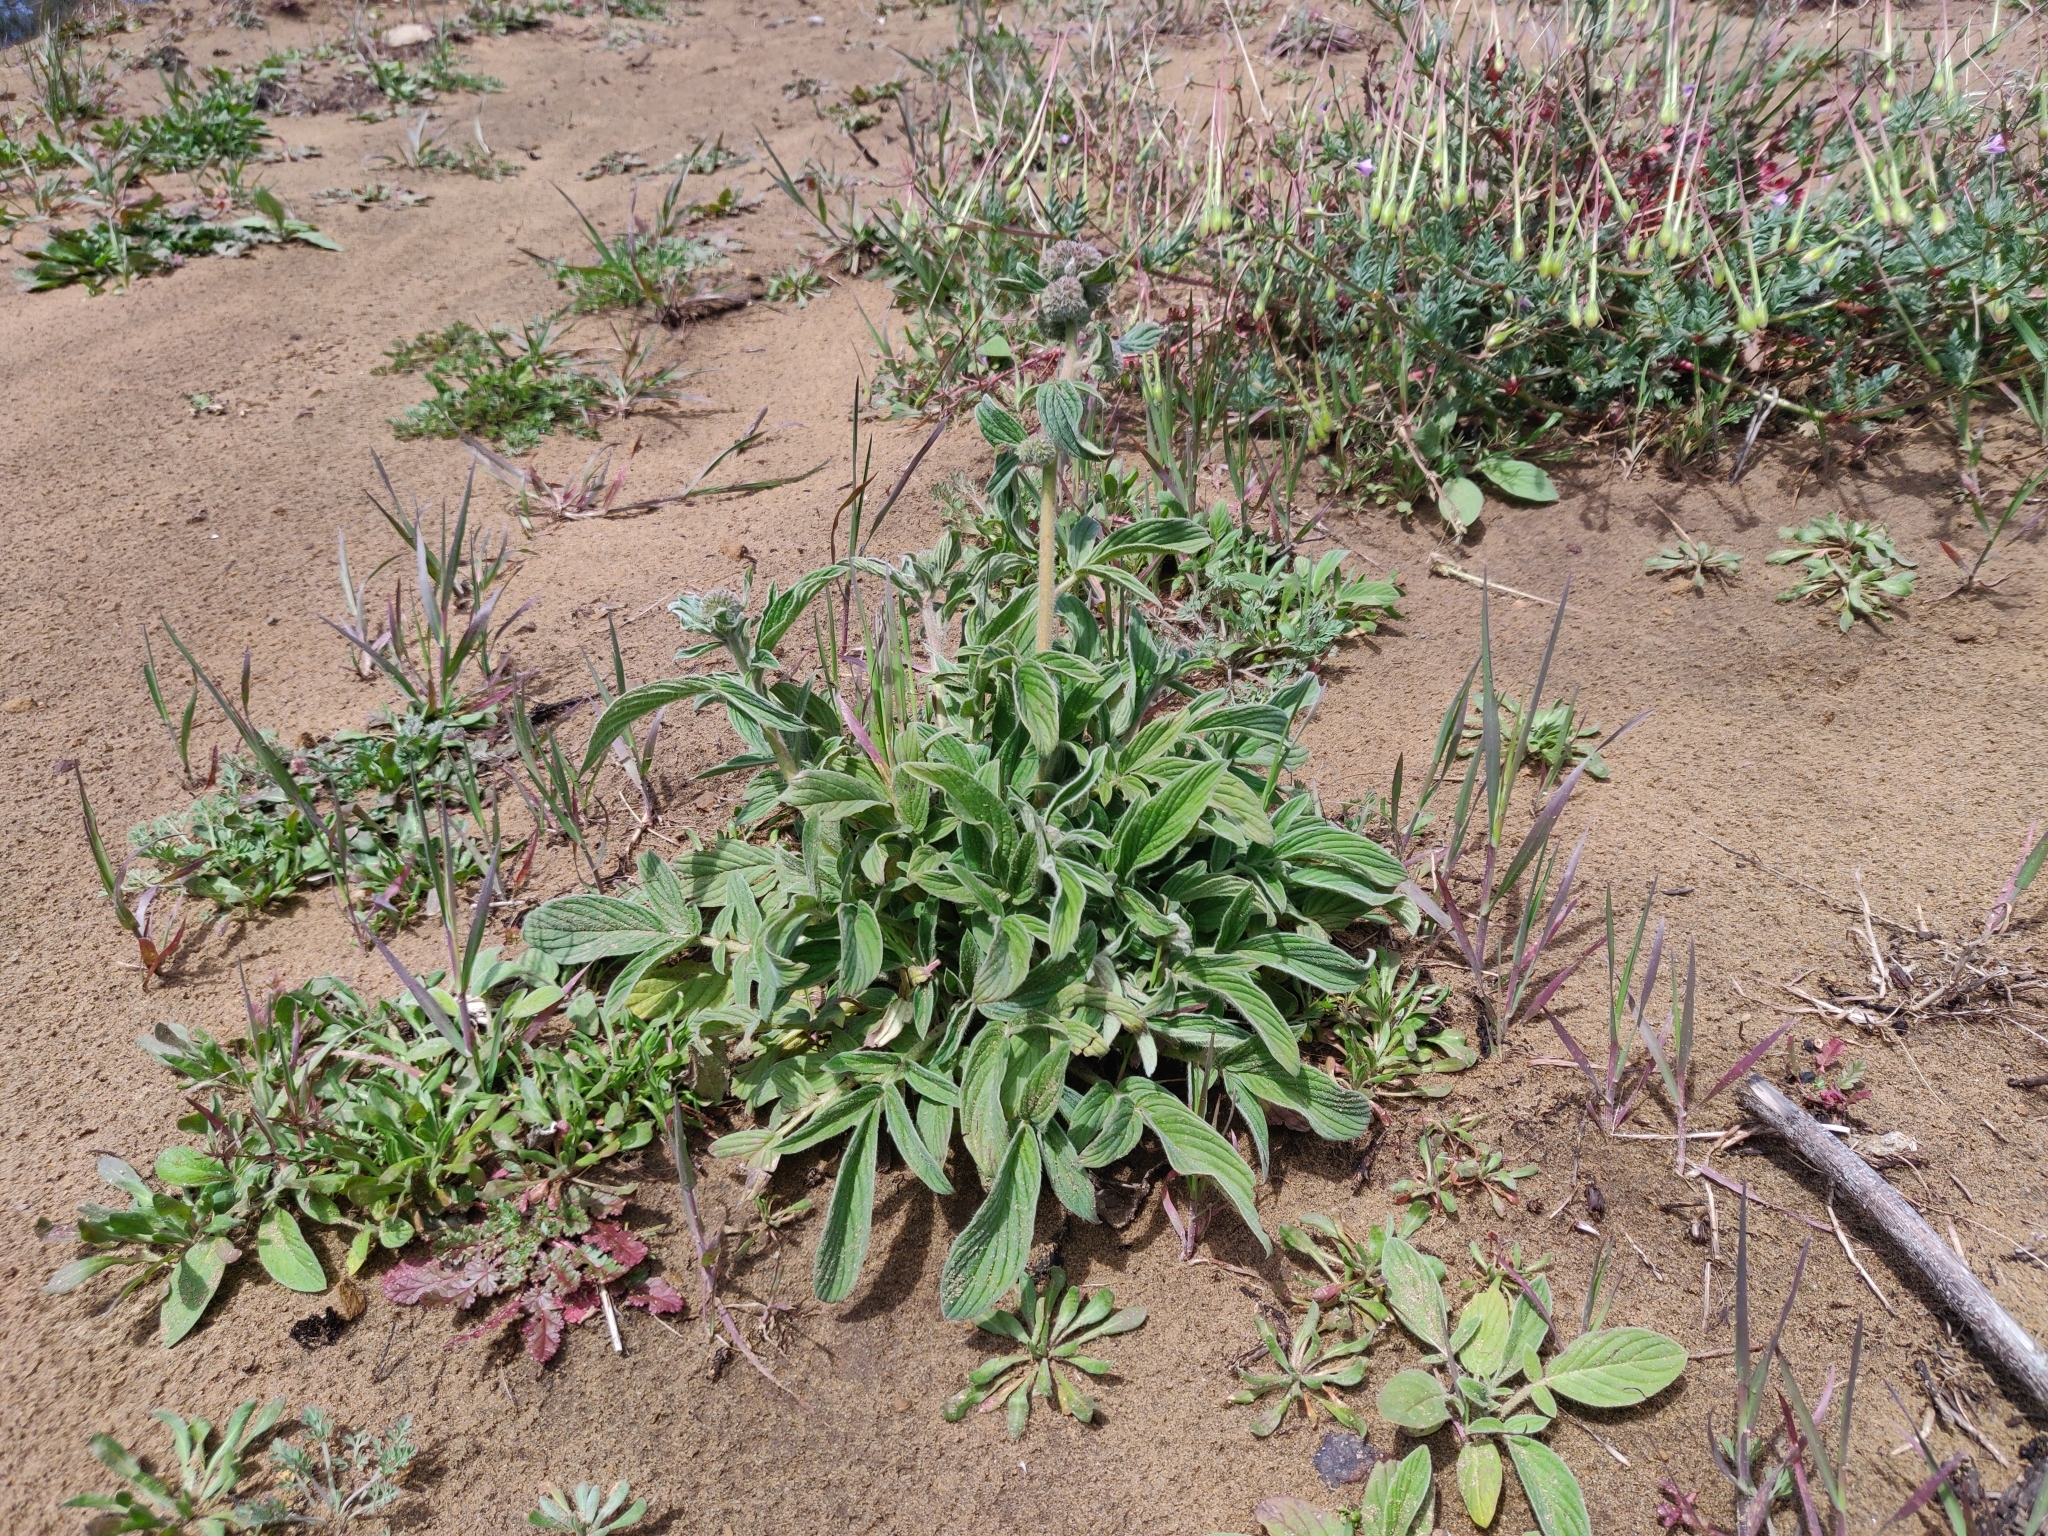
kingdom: Plantae
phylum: Tracheophyta
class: Magnoliopsida
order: Boraginales
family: Hydrophyllaceae
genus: Phacelia
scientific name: Phacelia californica
